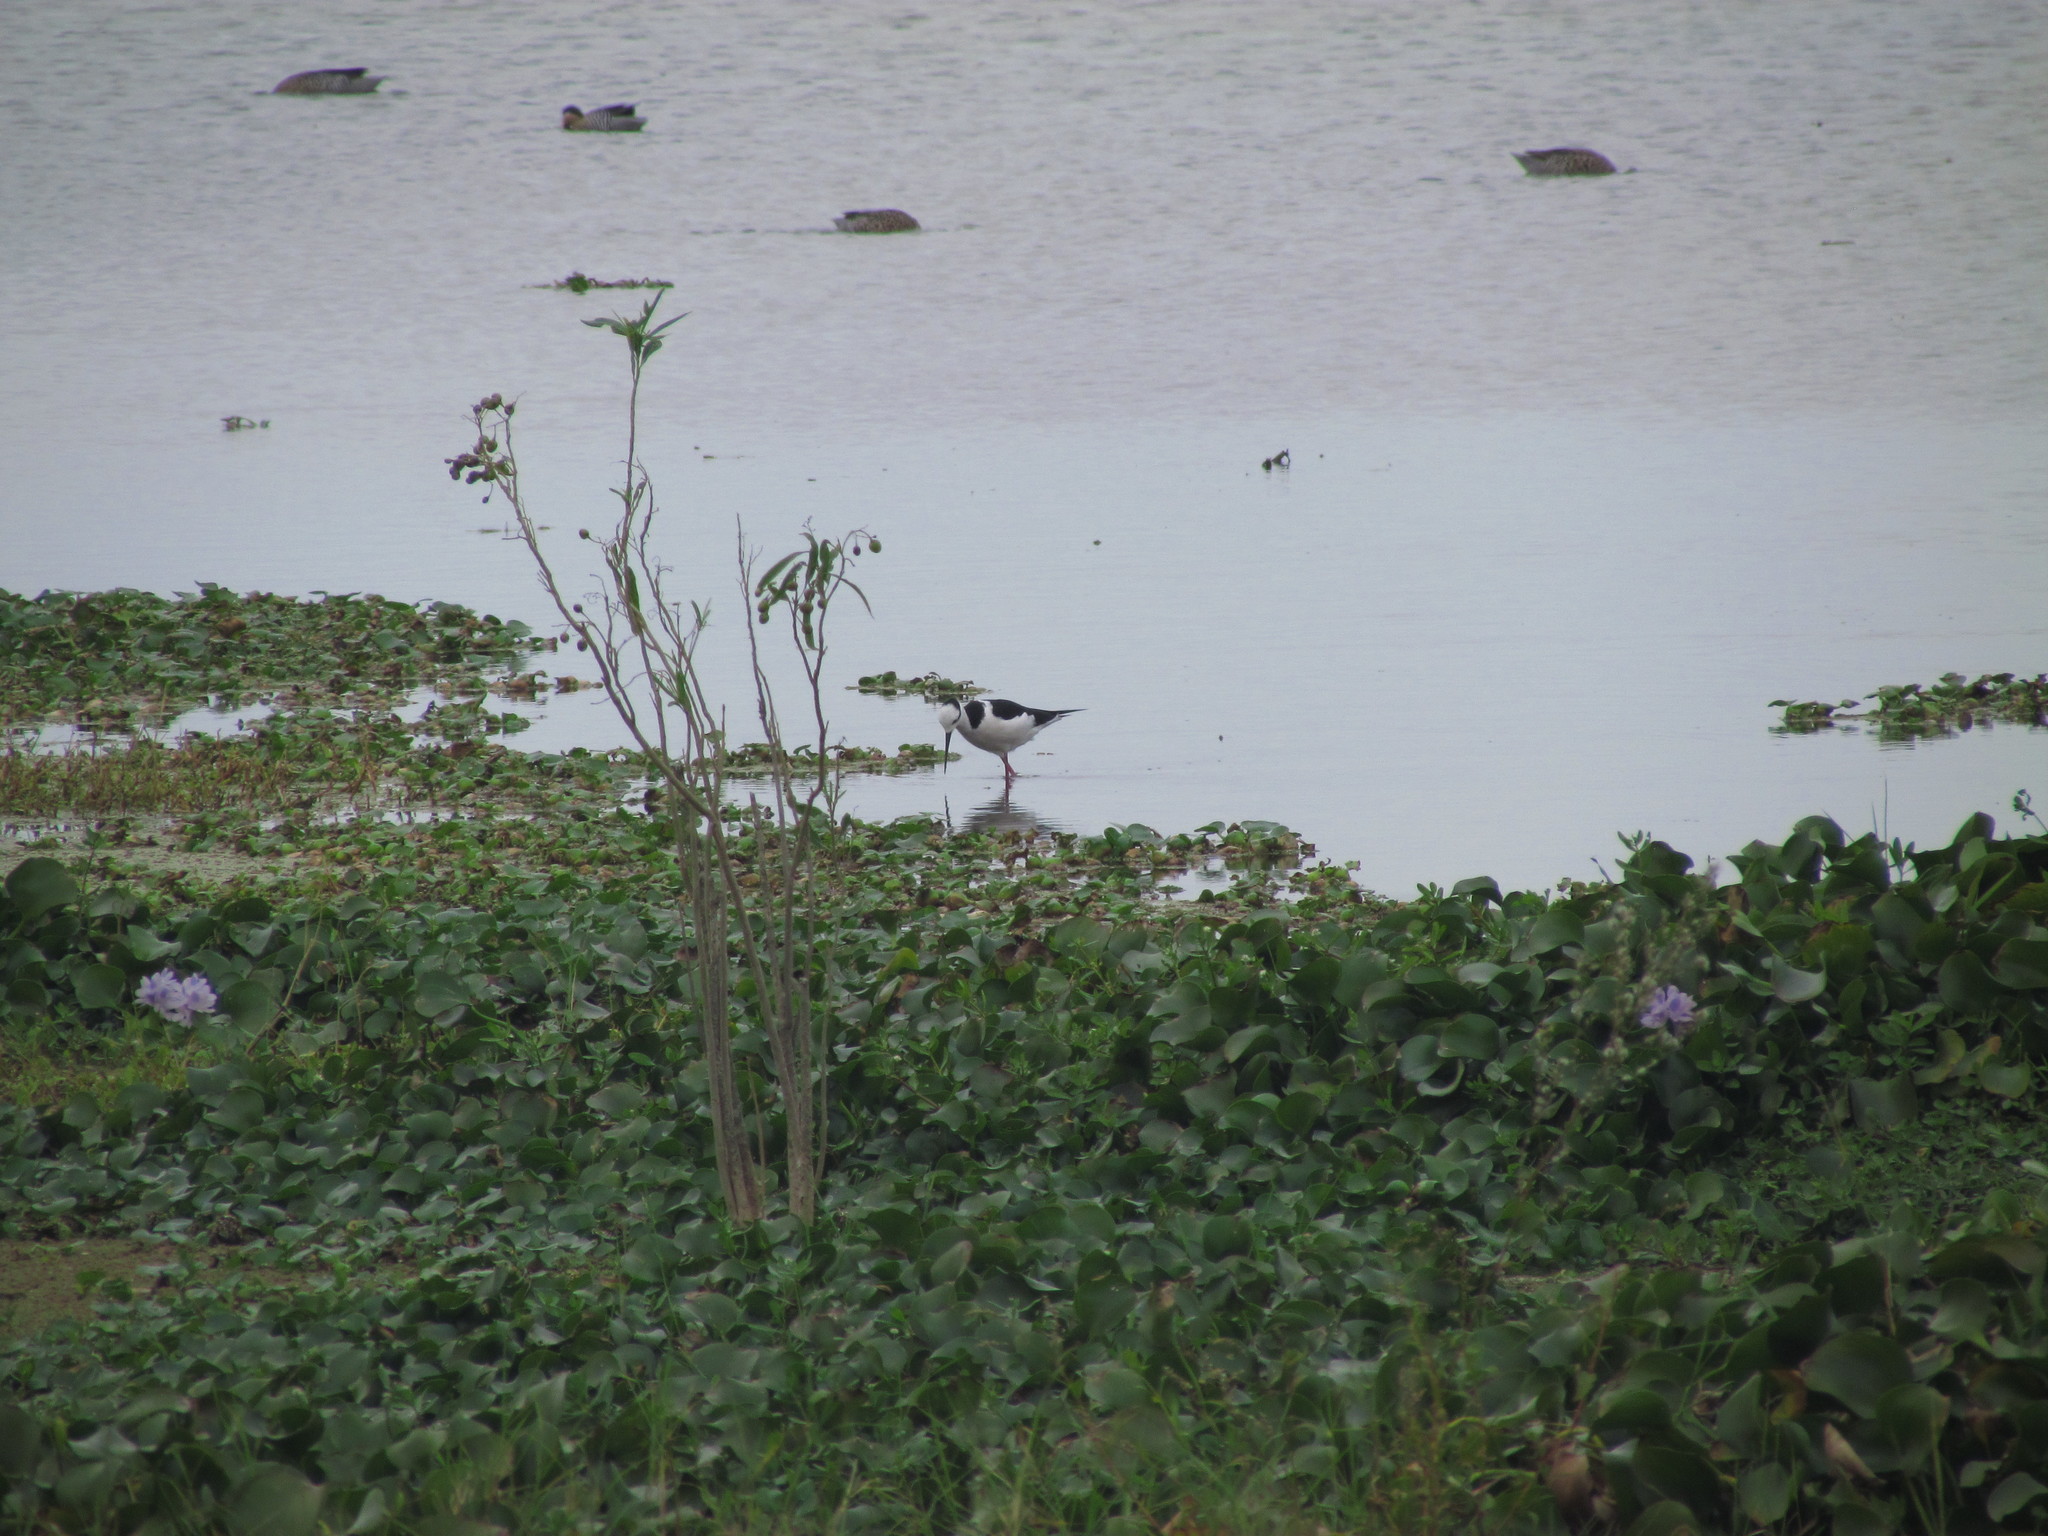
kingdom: Animalia
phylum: Chordata
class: Aves
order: Charadriiformes
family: Recurvirostridae
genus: Himantopus
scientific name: Himantopus mexicanus
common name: Black-necked stilt
